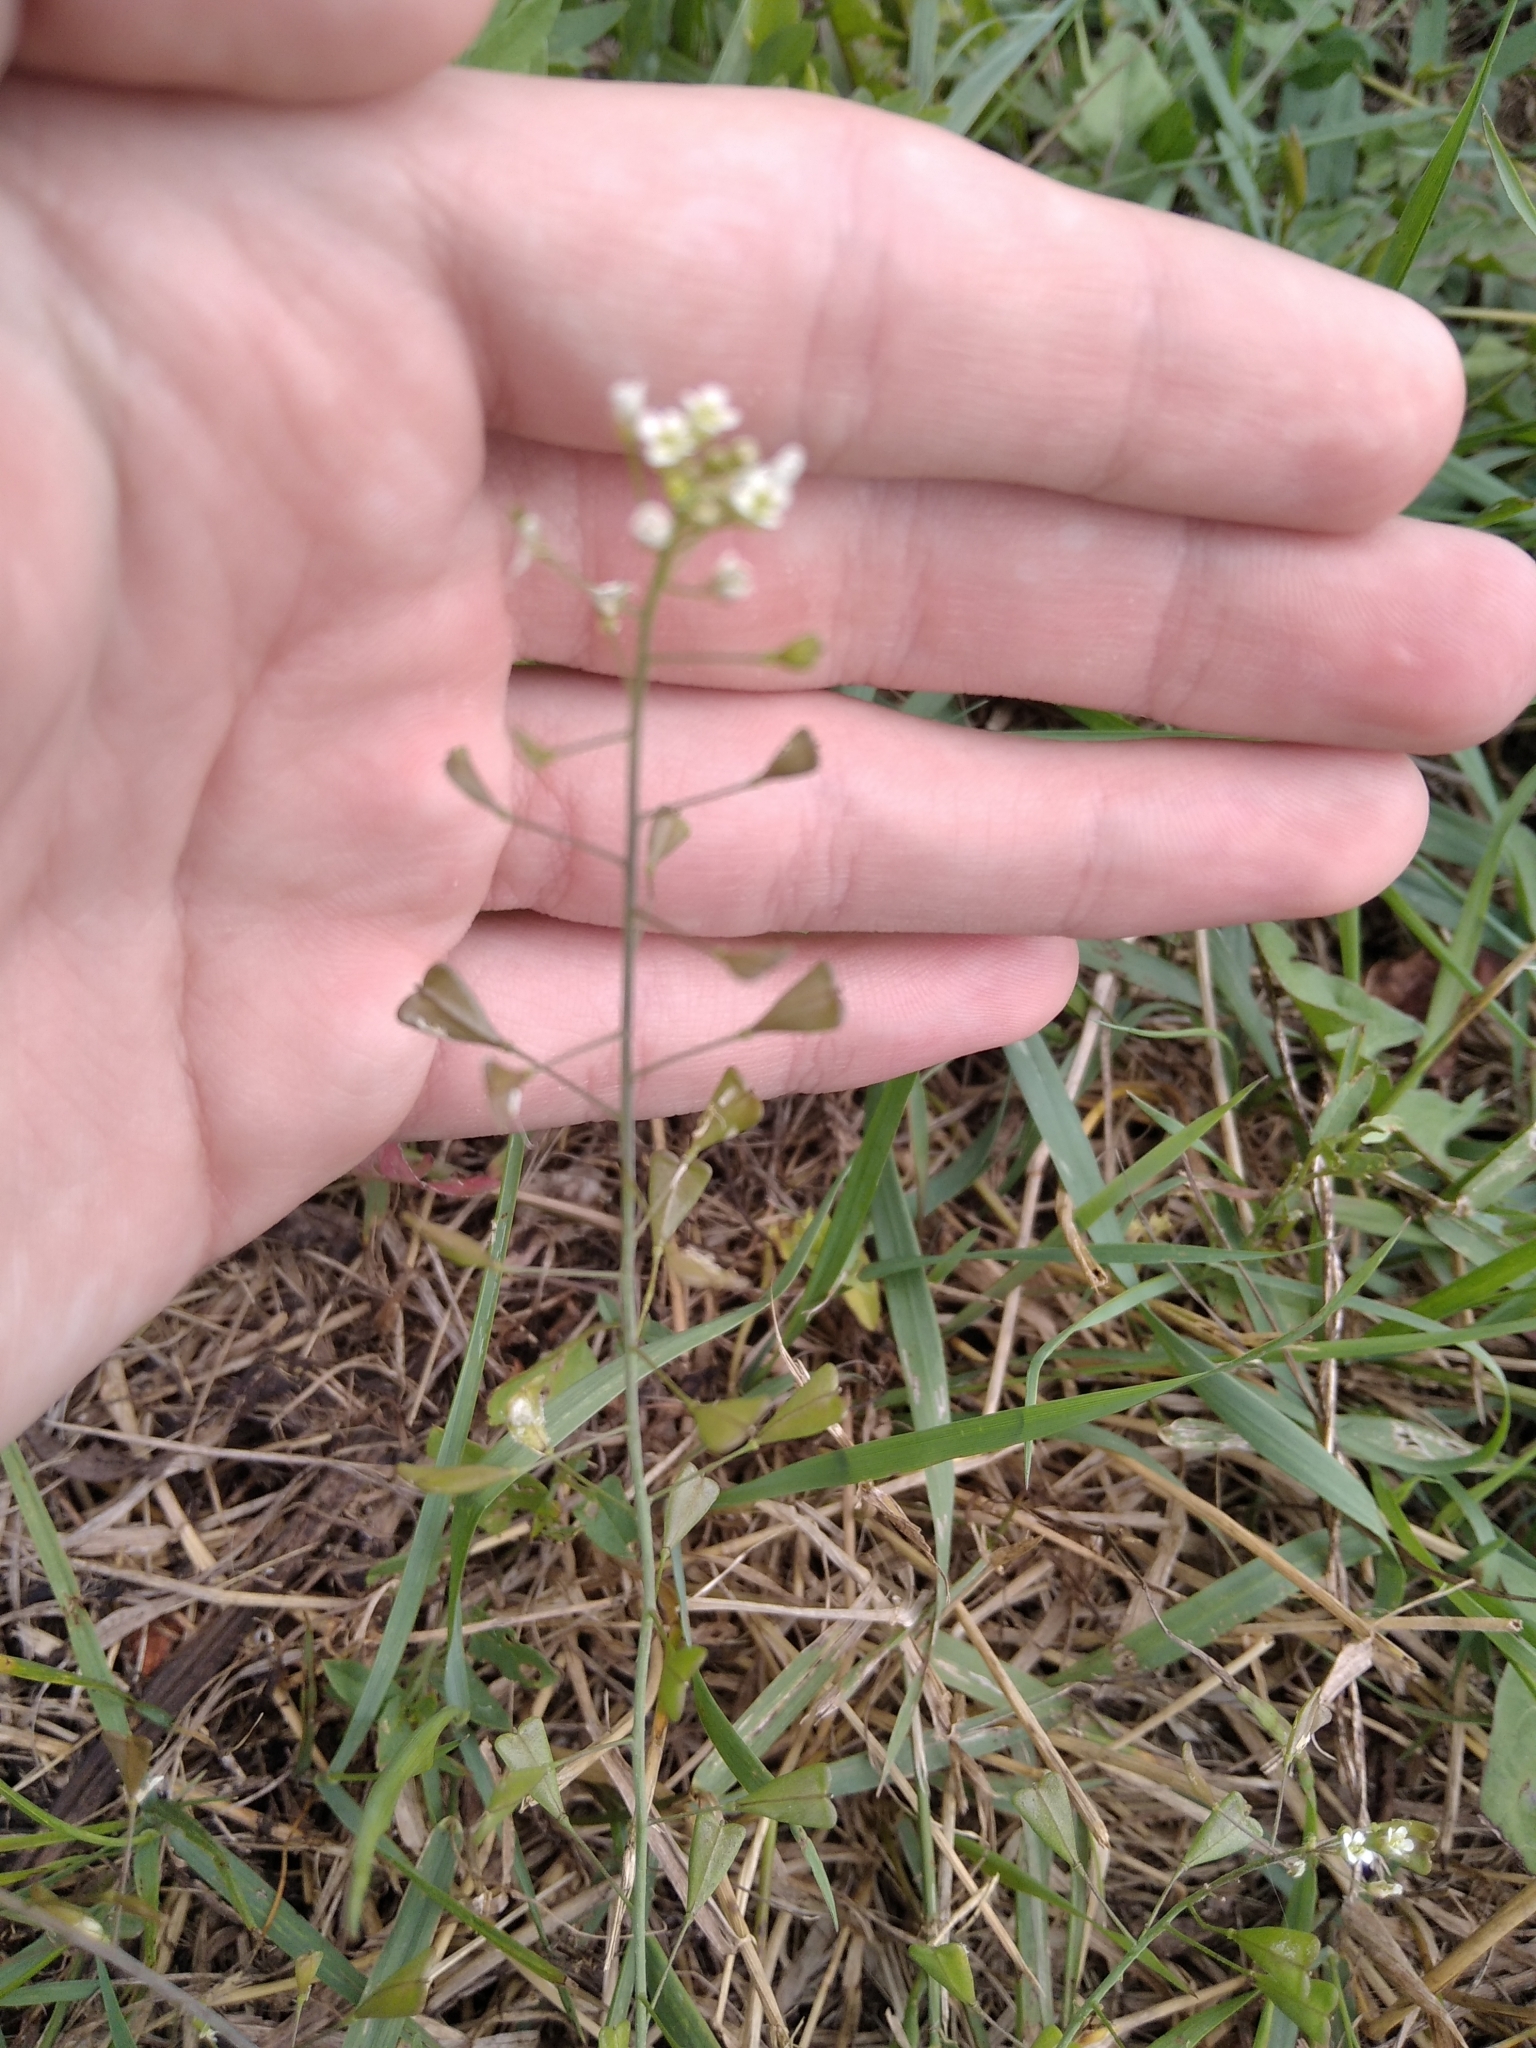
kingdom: Plantae
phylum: Tracheophyta
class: Magnoliopsida
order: Brassicales
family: Brassicaceae
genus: Capsella
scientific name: Capsella bursa-pastoris
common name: Shepherd's purse
